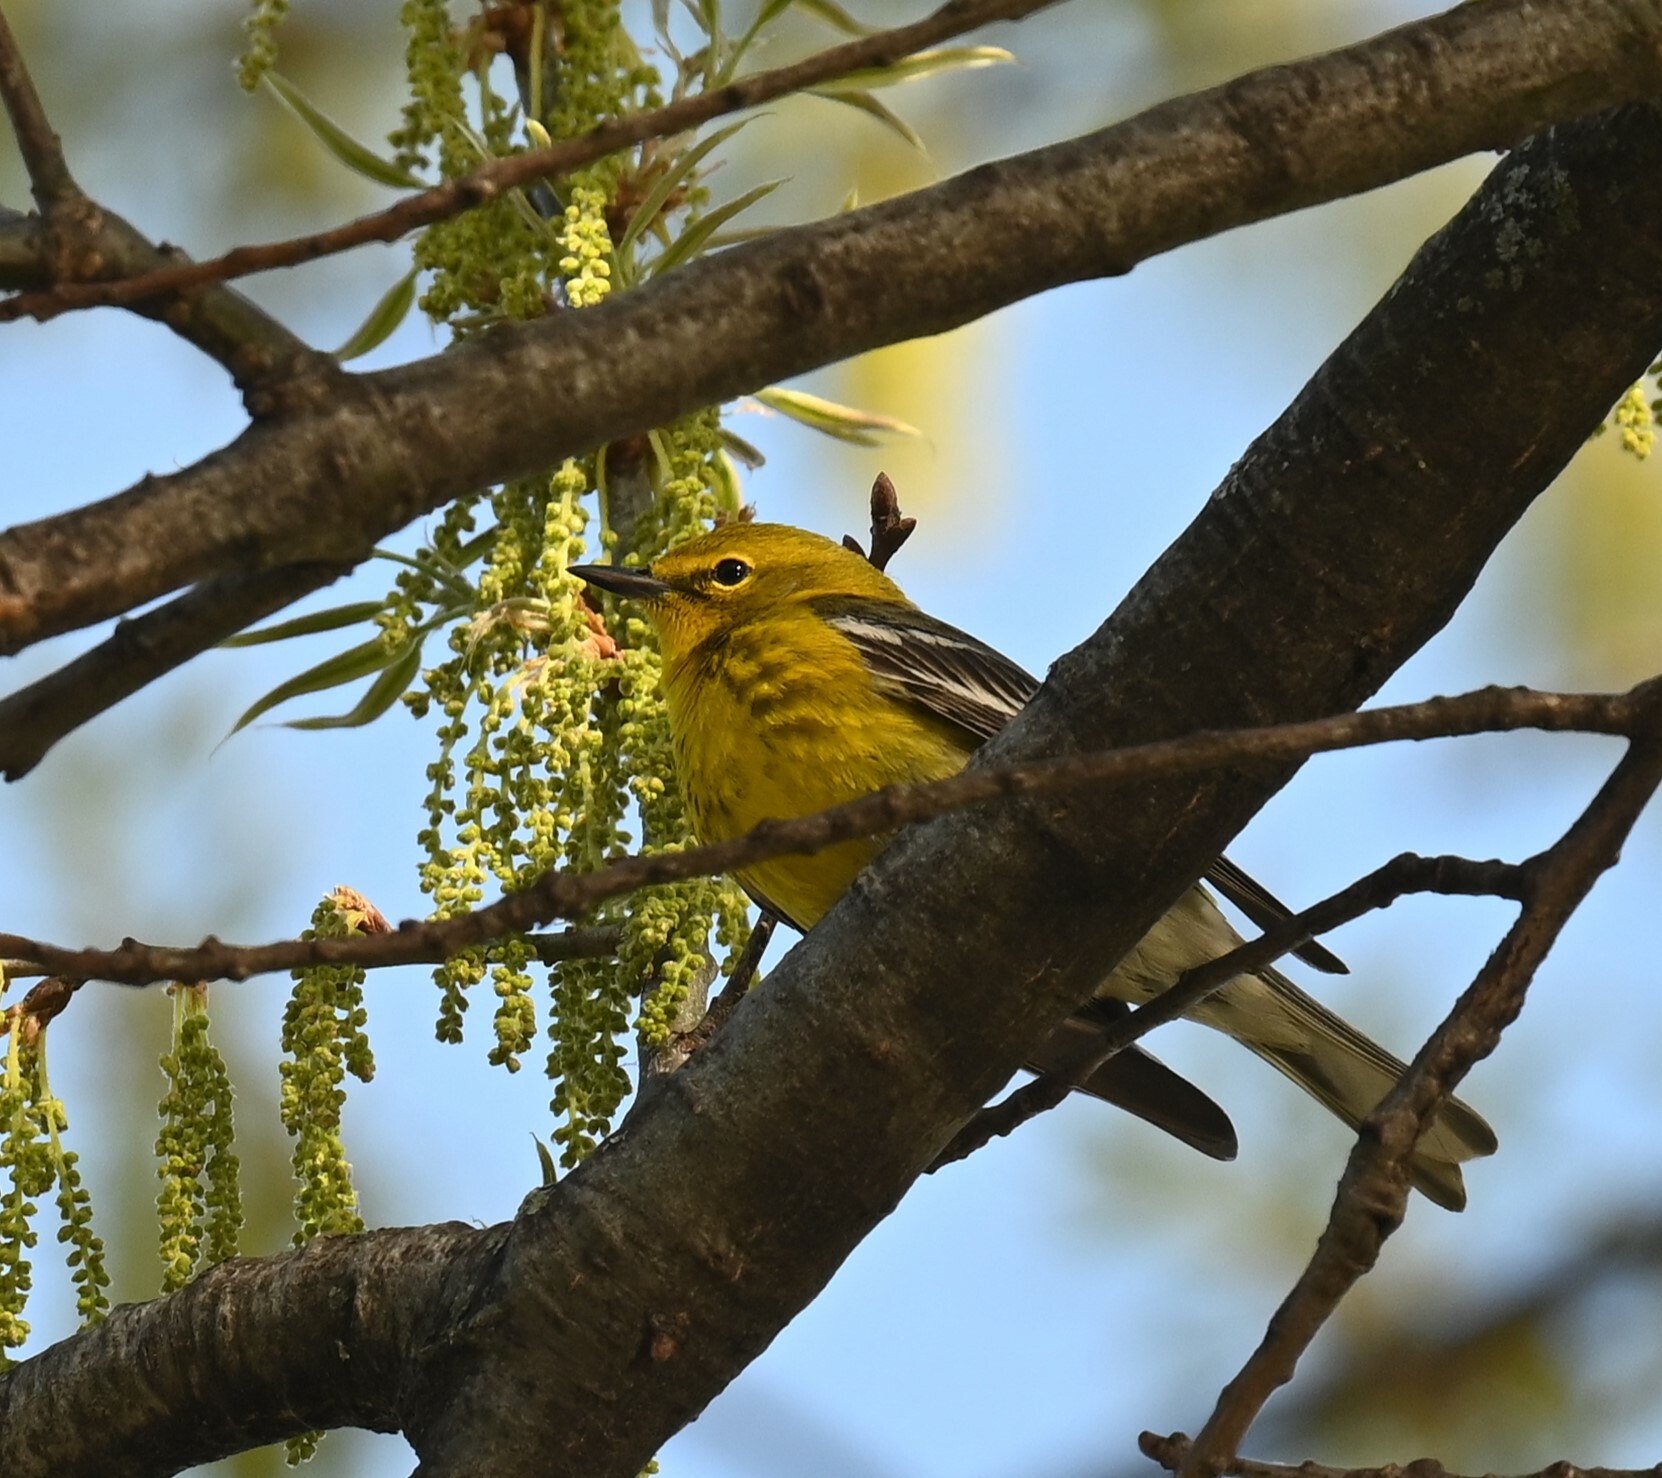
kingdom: Animalia
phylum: Chordata
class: Aves
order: Passeriformes
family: Parulidae
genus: Setophaga
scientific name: Setophaga pinus
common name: Pine warbler
